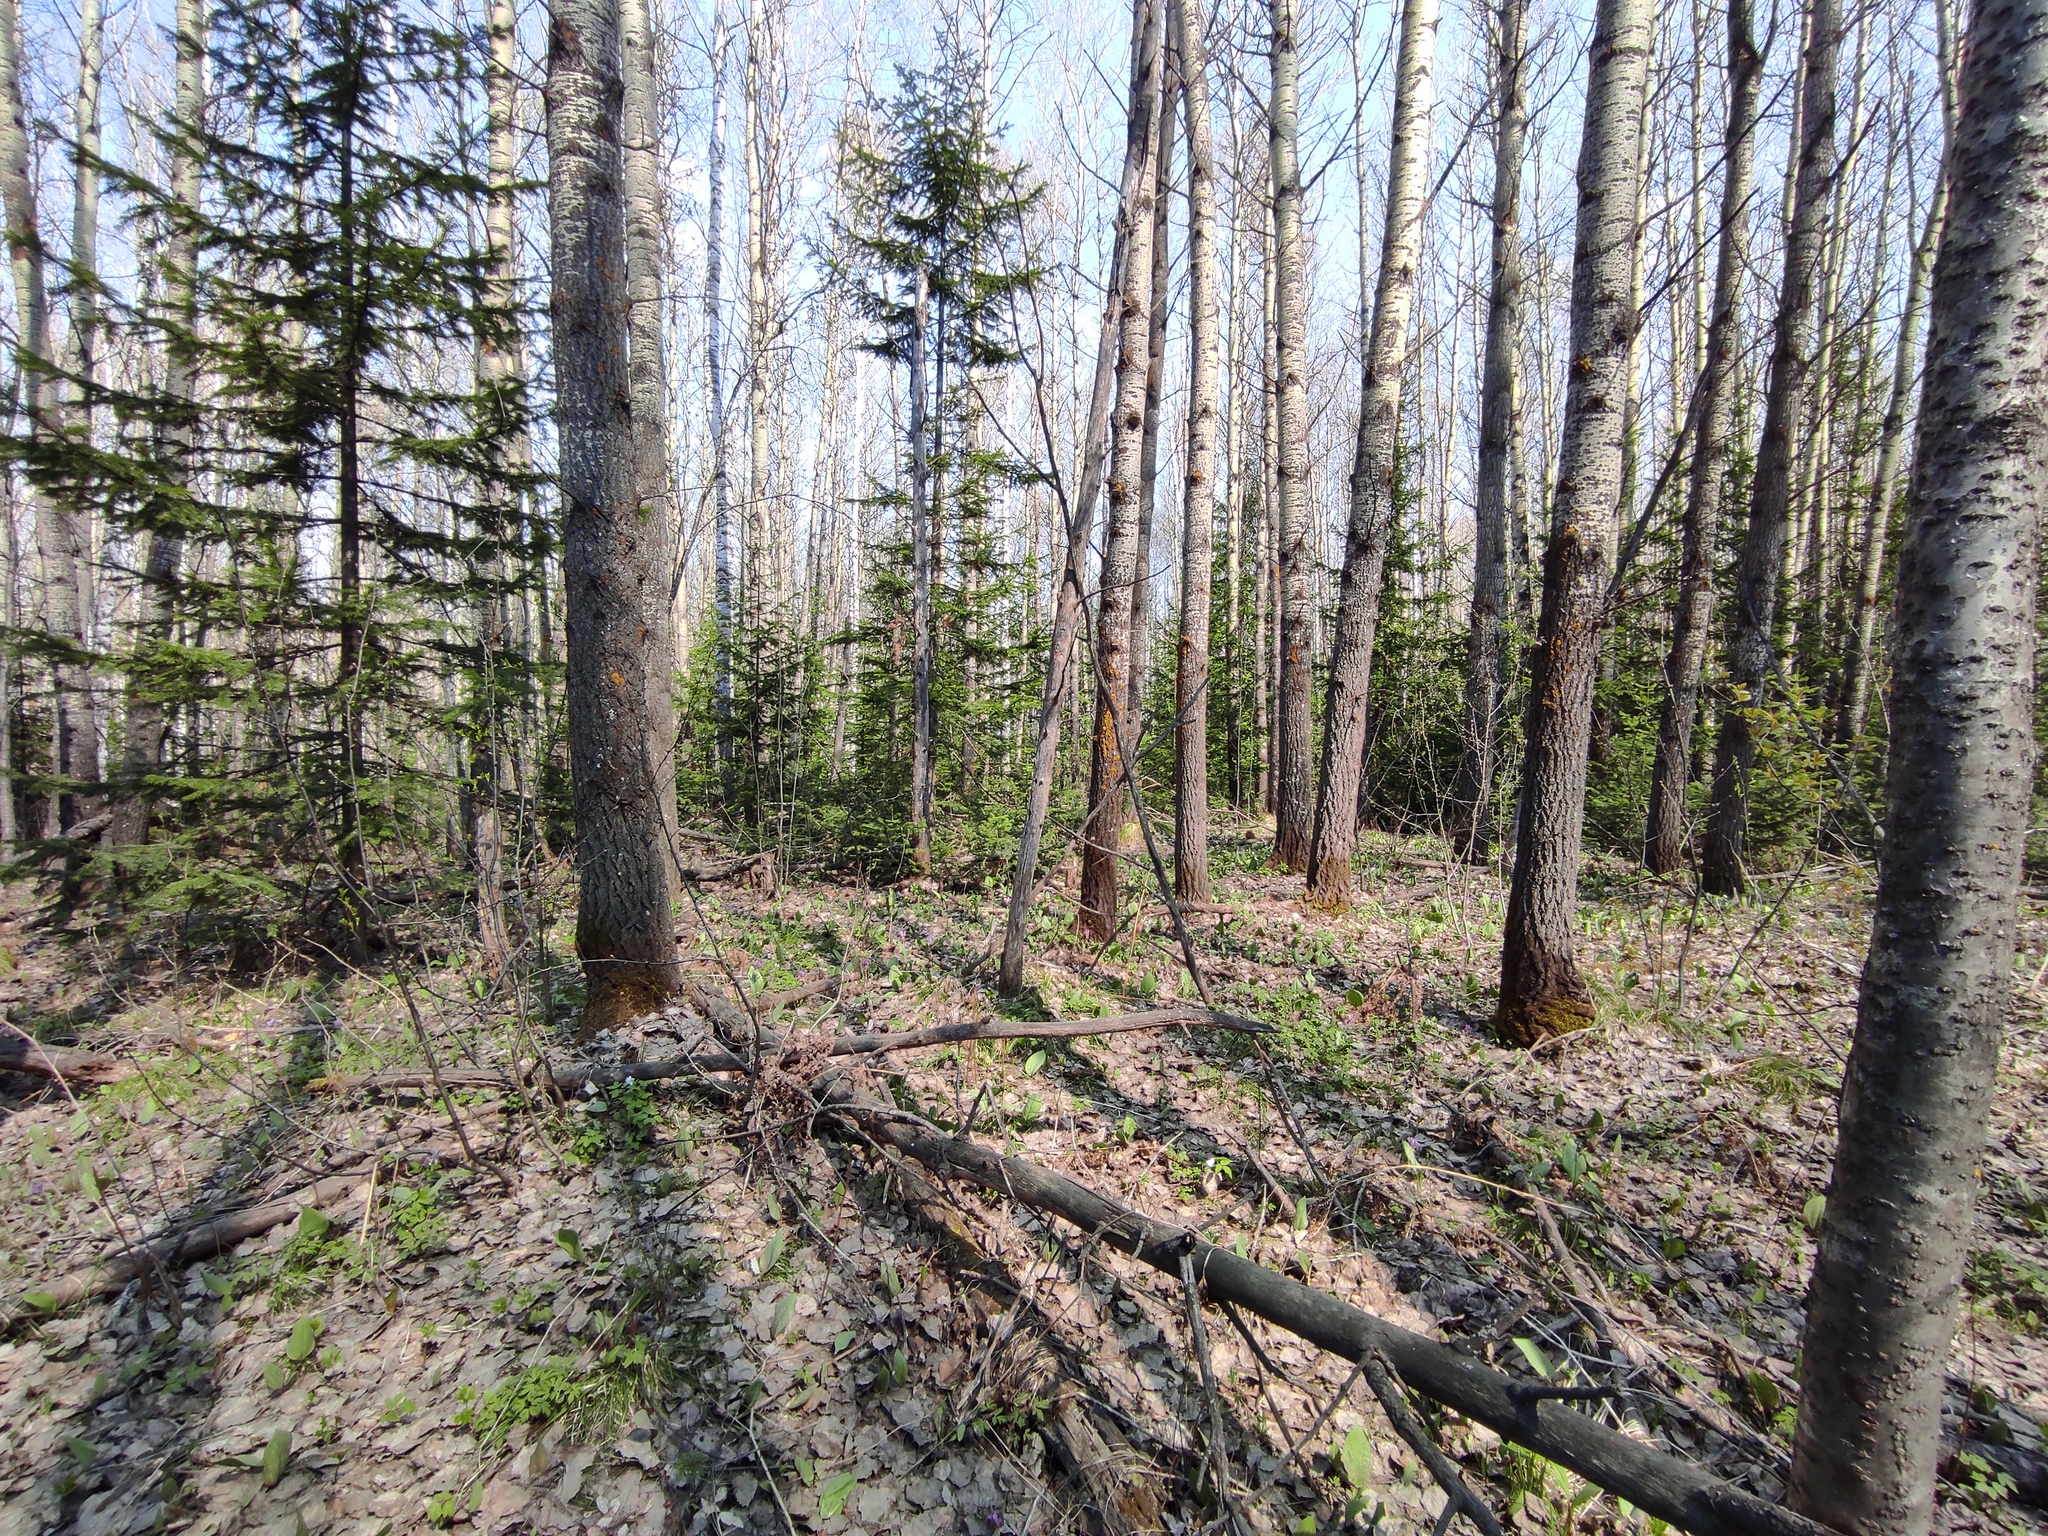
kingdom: Plantae
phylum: Tracheophyta
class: Magnoliopsida
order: Malpighiales
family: Salicaceae
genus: Populus
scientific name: Populus tremula
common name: European aspen
